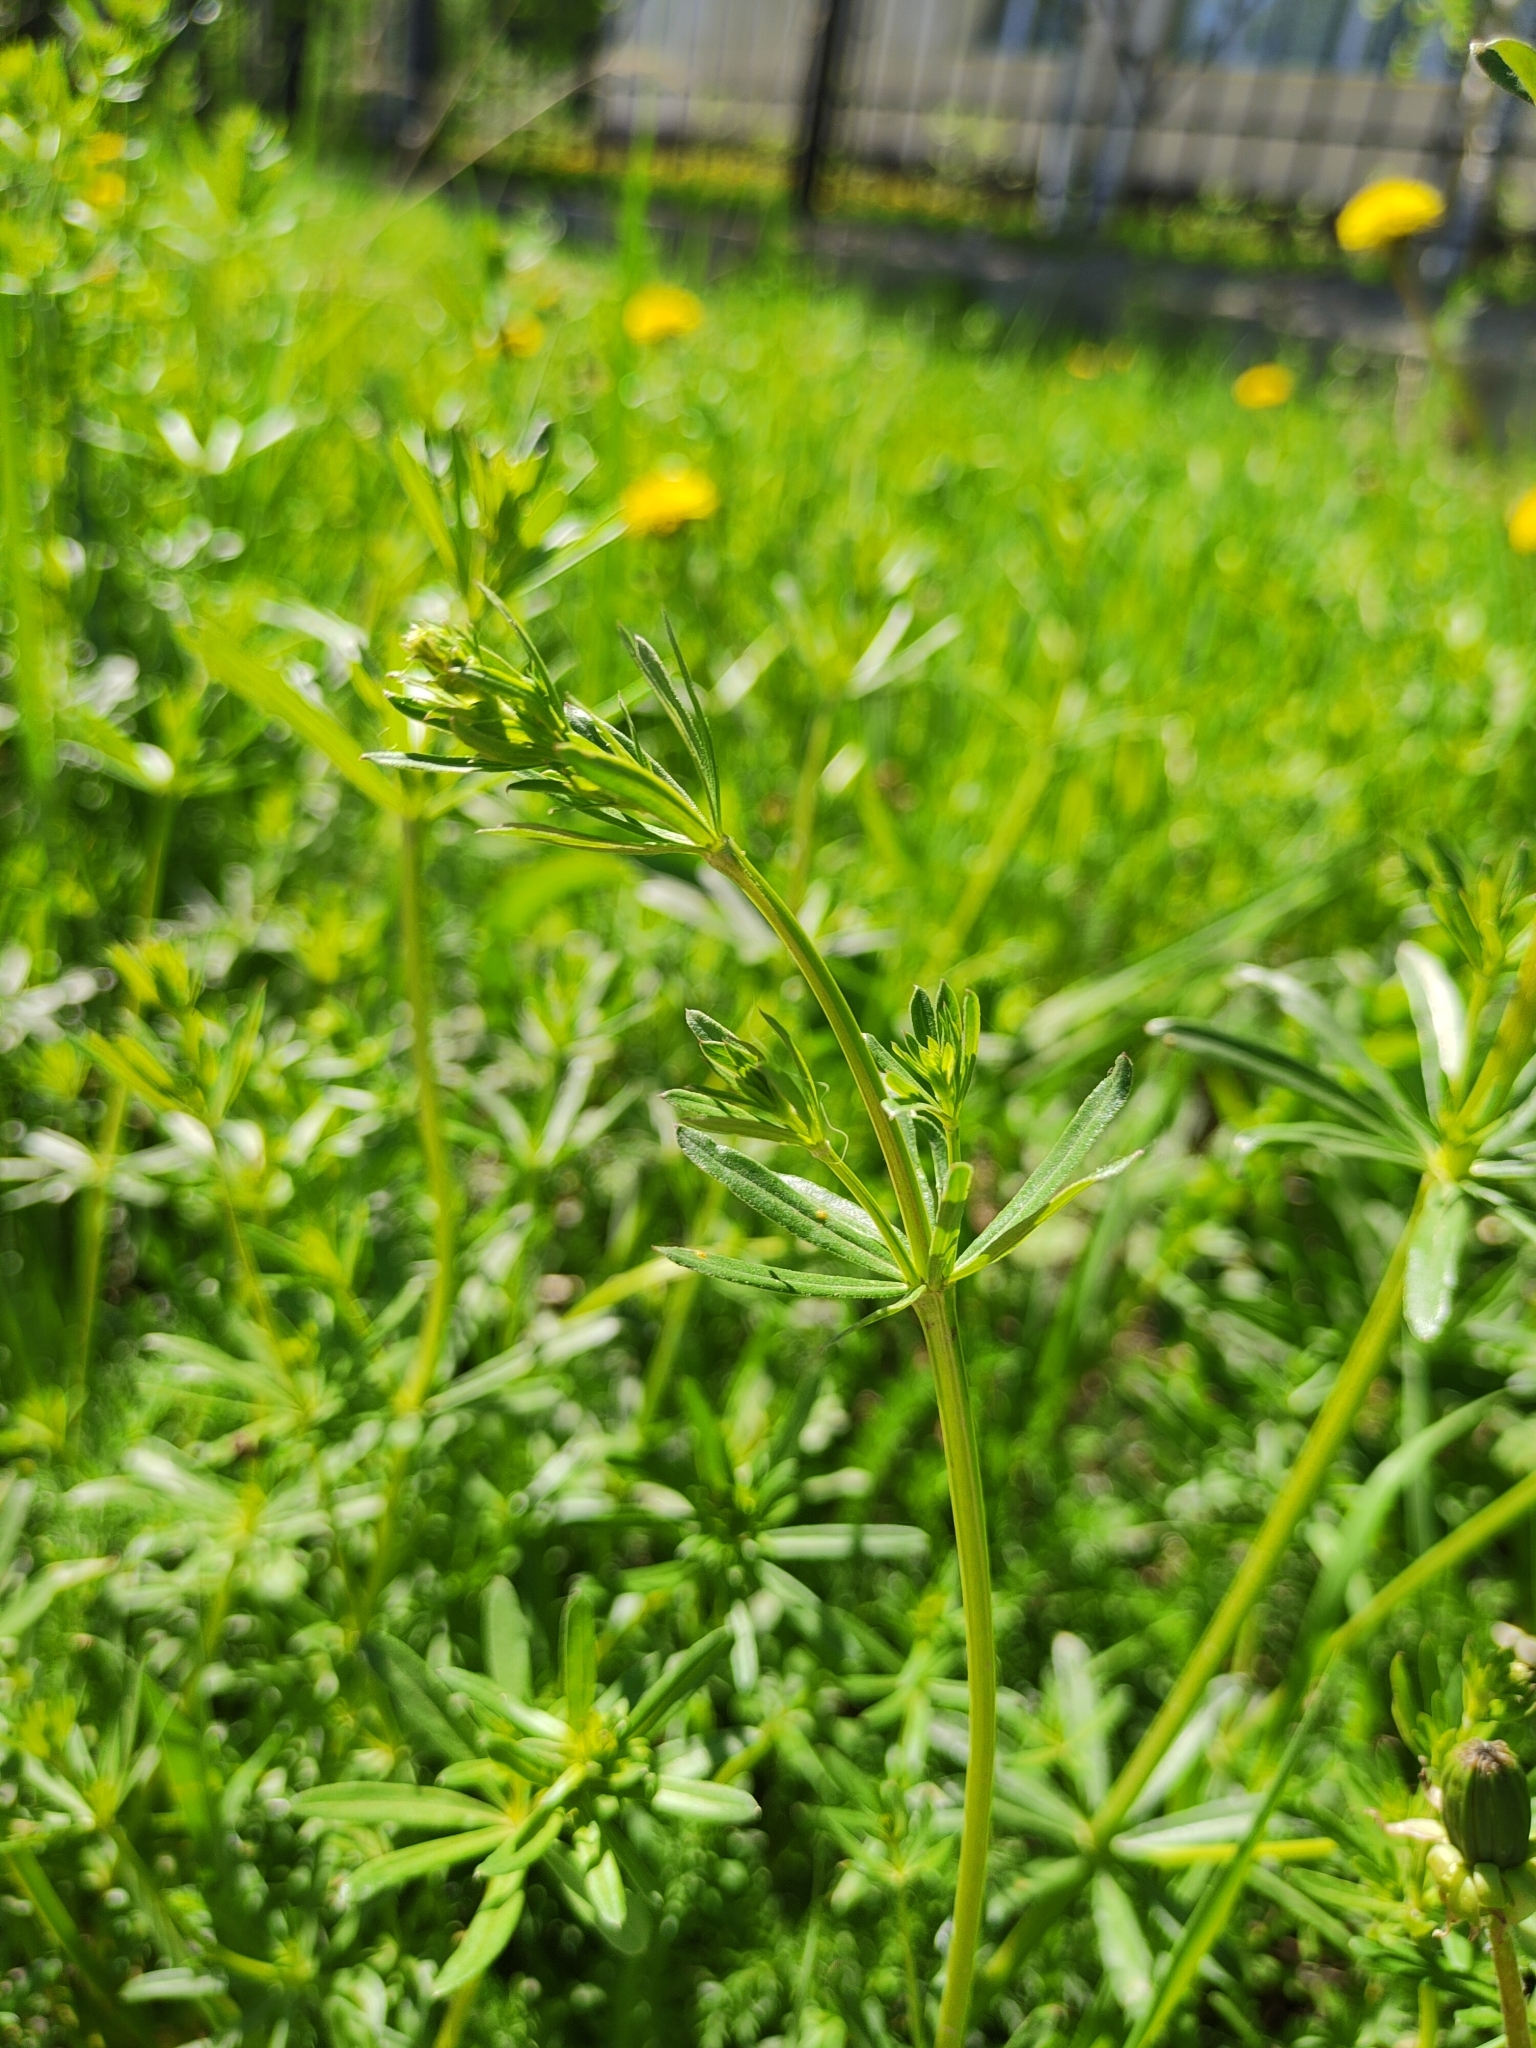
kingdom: Plantae
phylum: Tracheophyta
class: Magnoliopsida
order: Gentianales
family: Rubiaceae
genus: Galium
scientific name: Galium mollugo
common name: Hedge bedstraw
